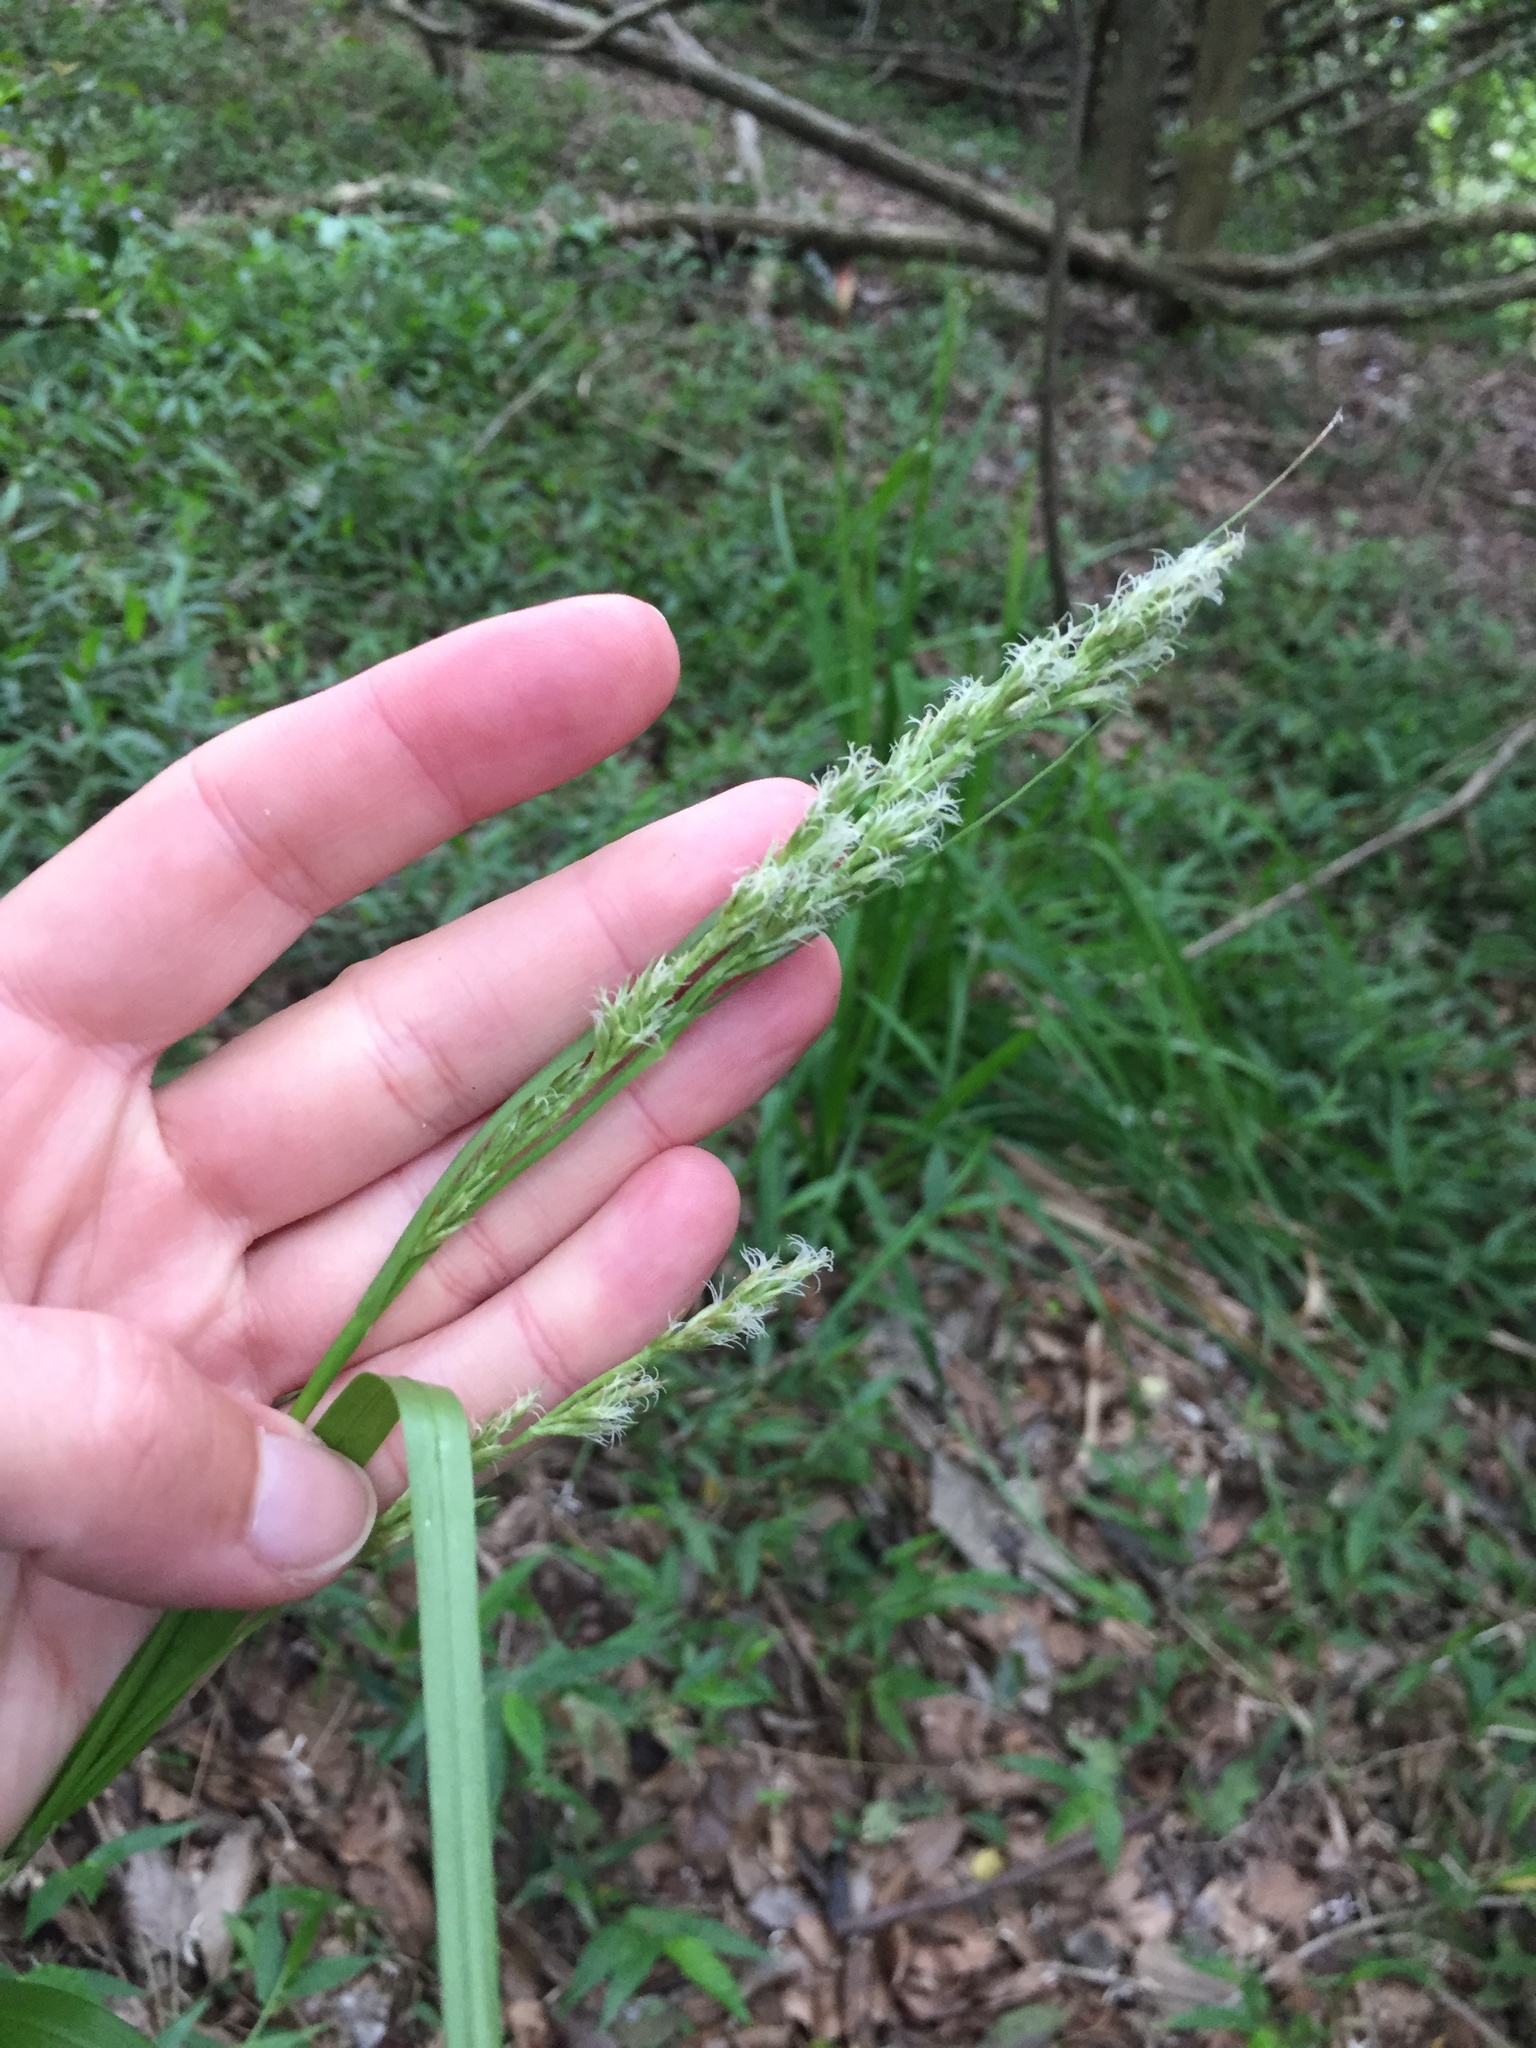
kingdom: Plantae
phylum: Tracheophyta
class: Liliopsida
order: Poales
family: Cyperaceae
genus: Carex
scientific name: Carex steudneri
